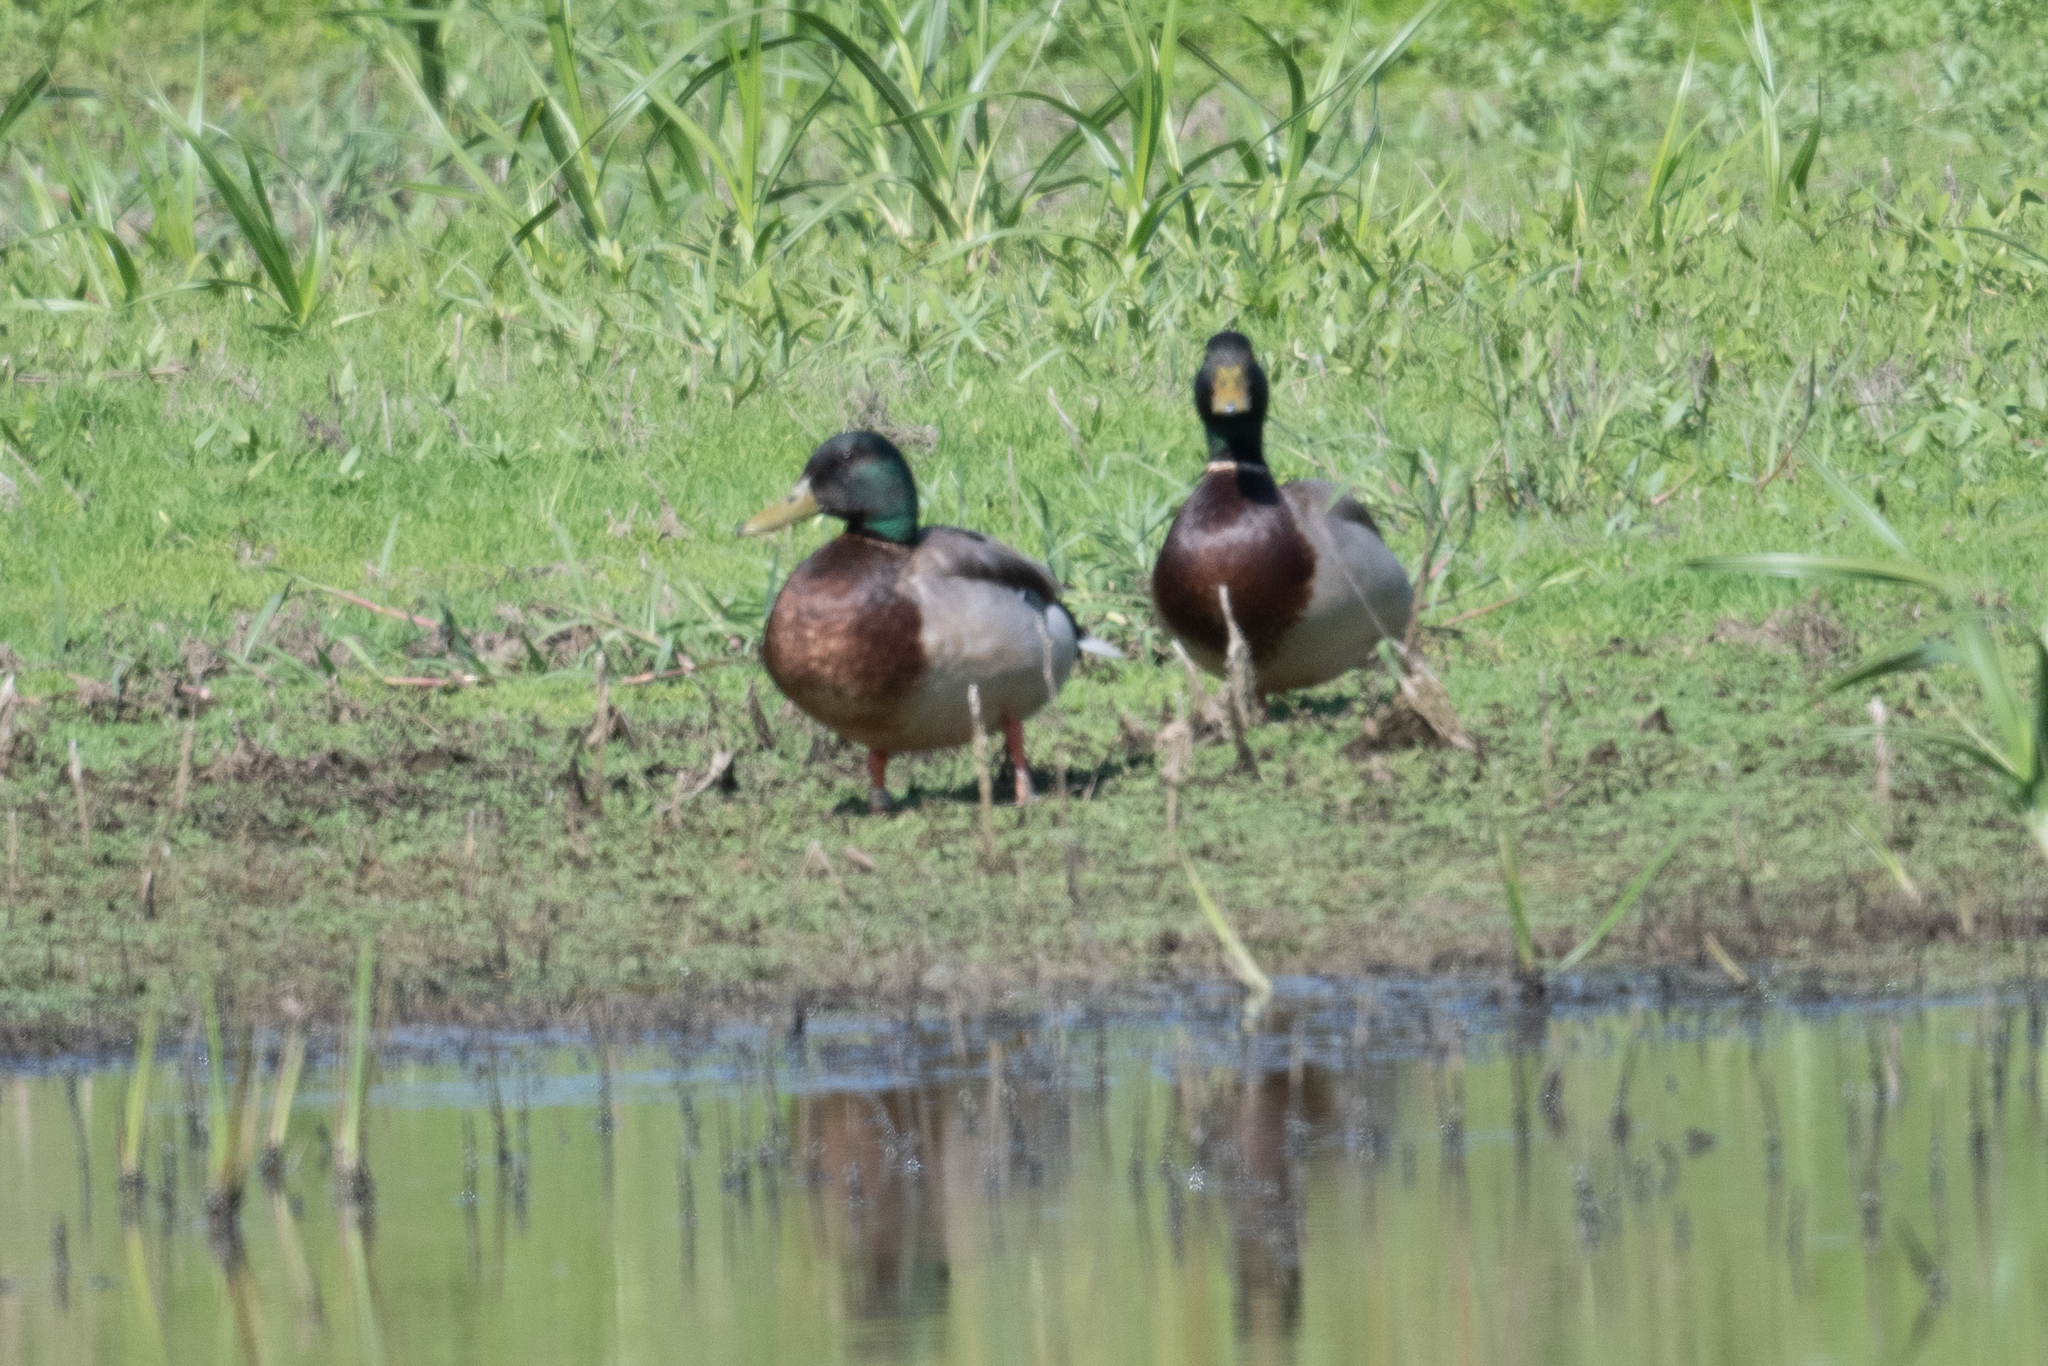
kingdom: Animalia
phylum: Chordata
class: Aves
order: Anseriformes
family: Anatidae
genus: Anas
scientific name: Anas platyrhynchos
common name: Mallard
